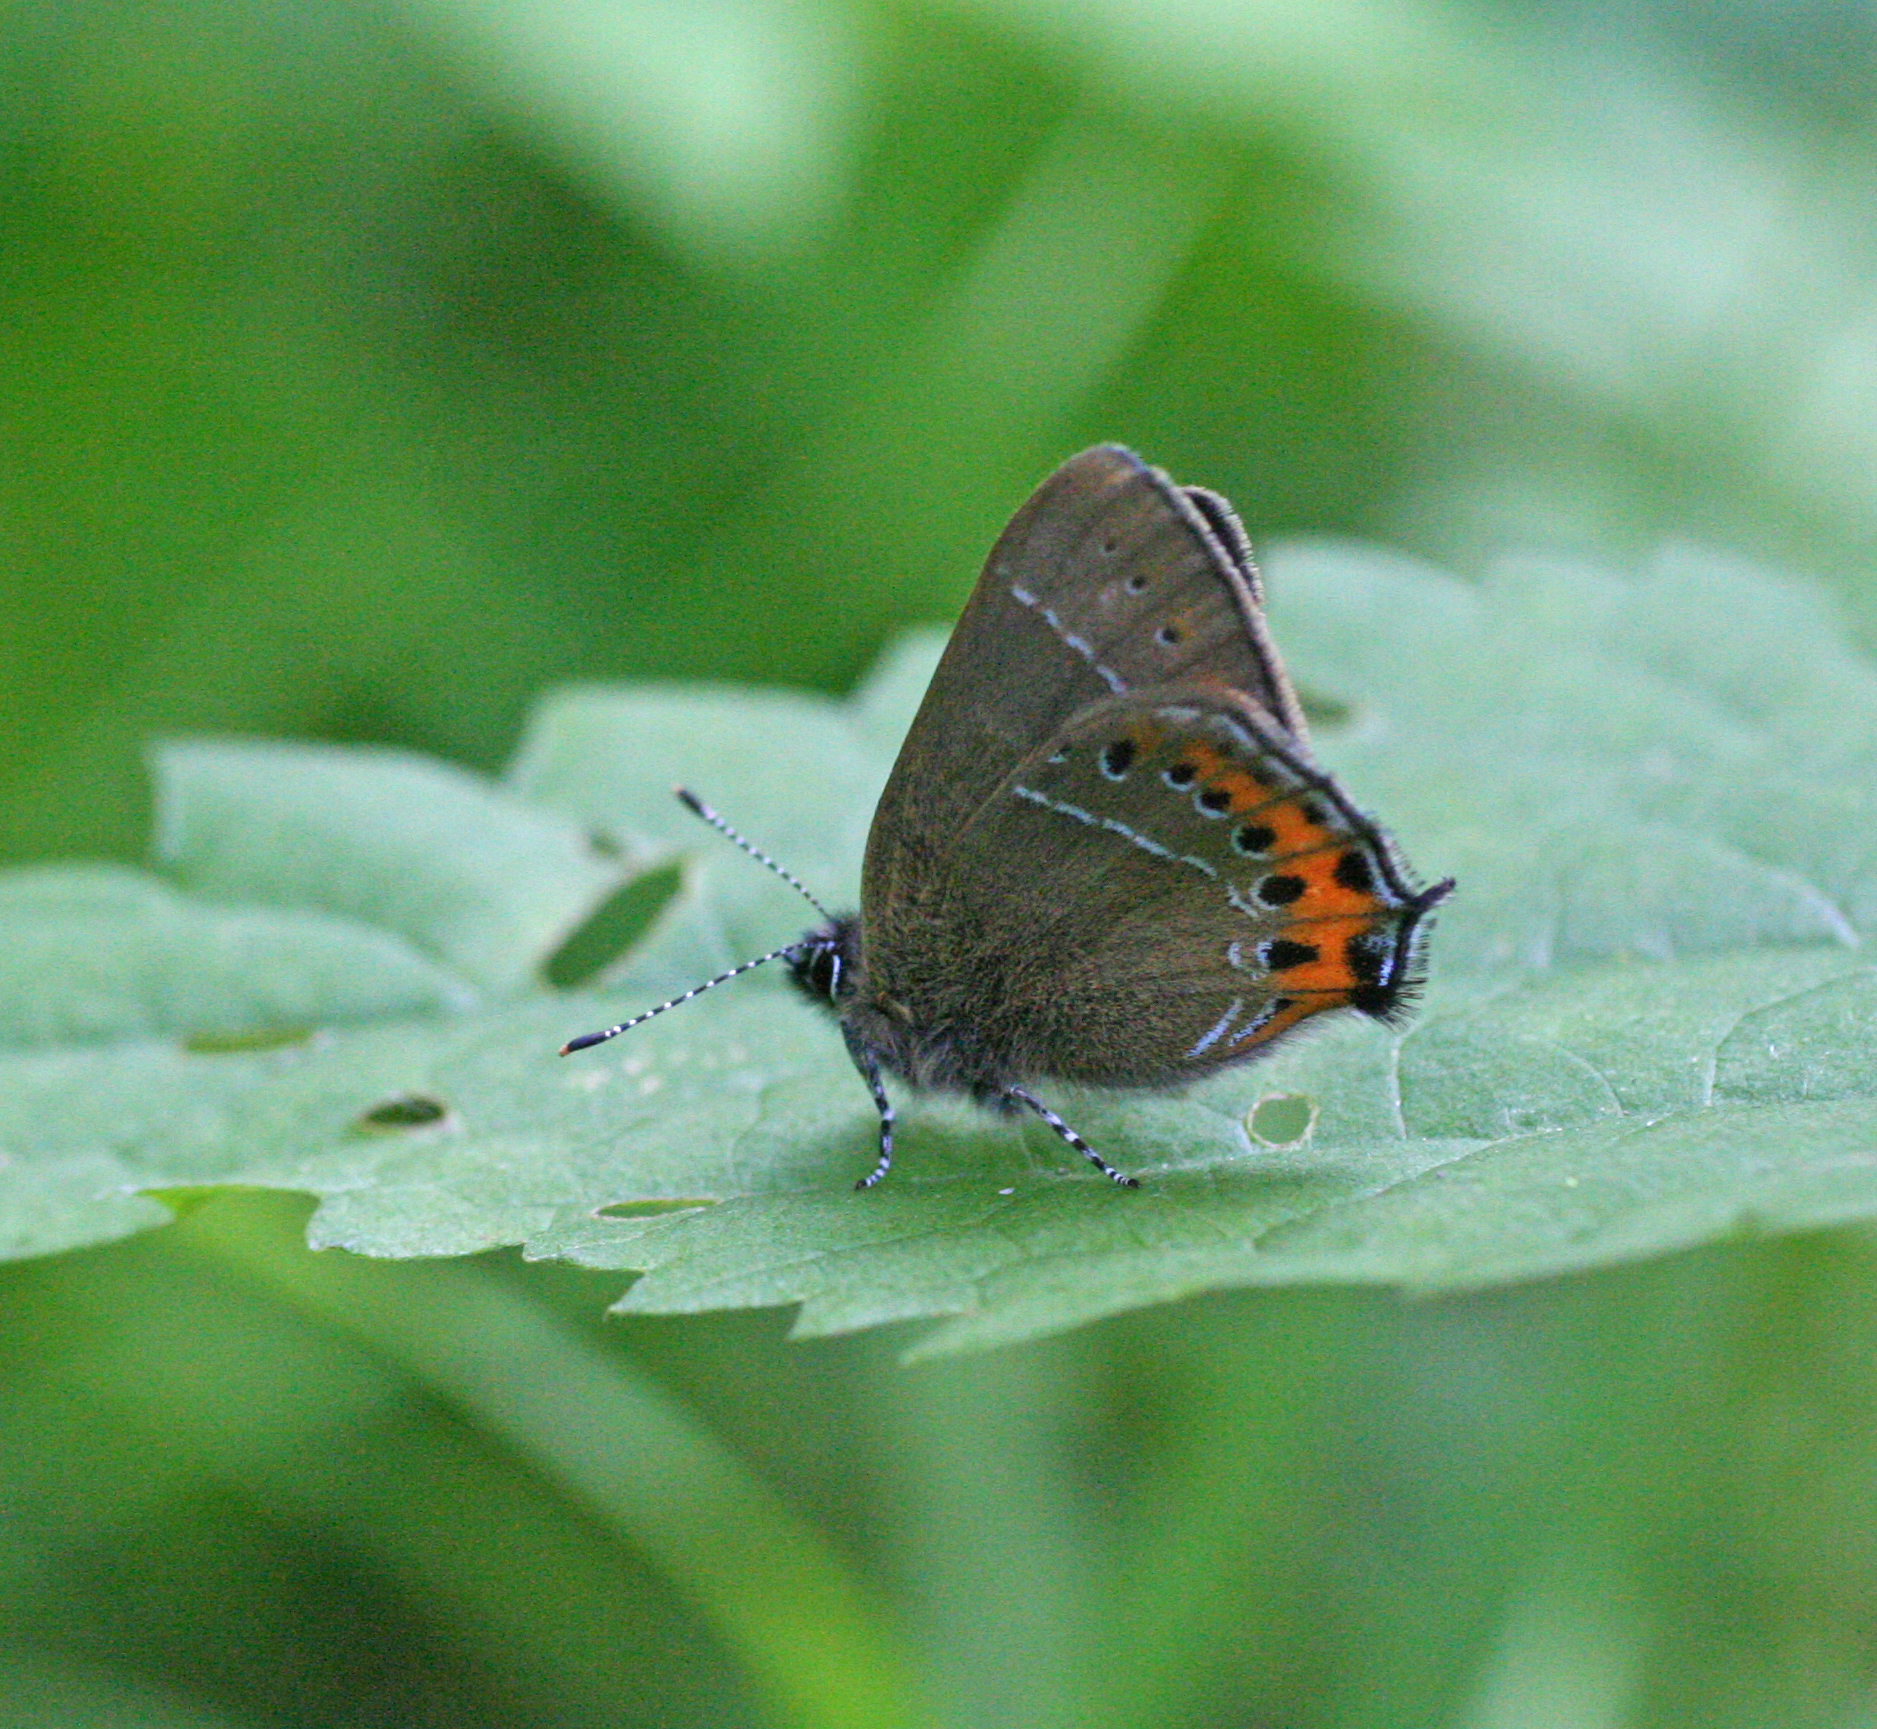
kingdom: Animalia
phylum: Arthropoda
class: Insecta
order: Lepidoptera
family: Lycaenidae
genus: Fixsenia
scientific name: Fixsenia pruni
